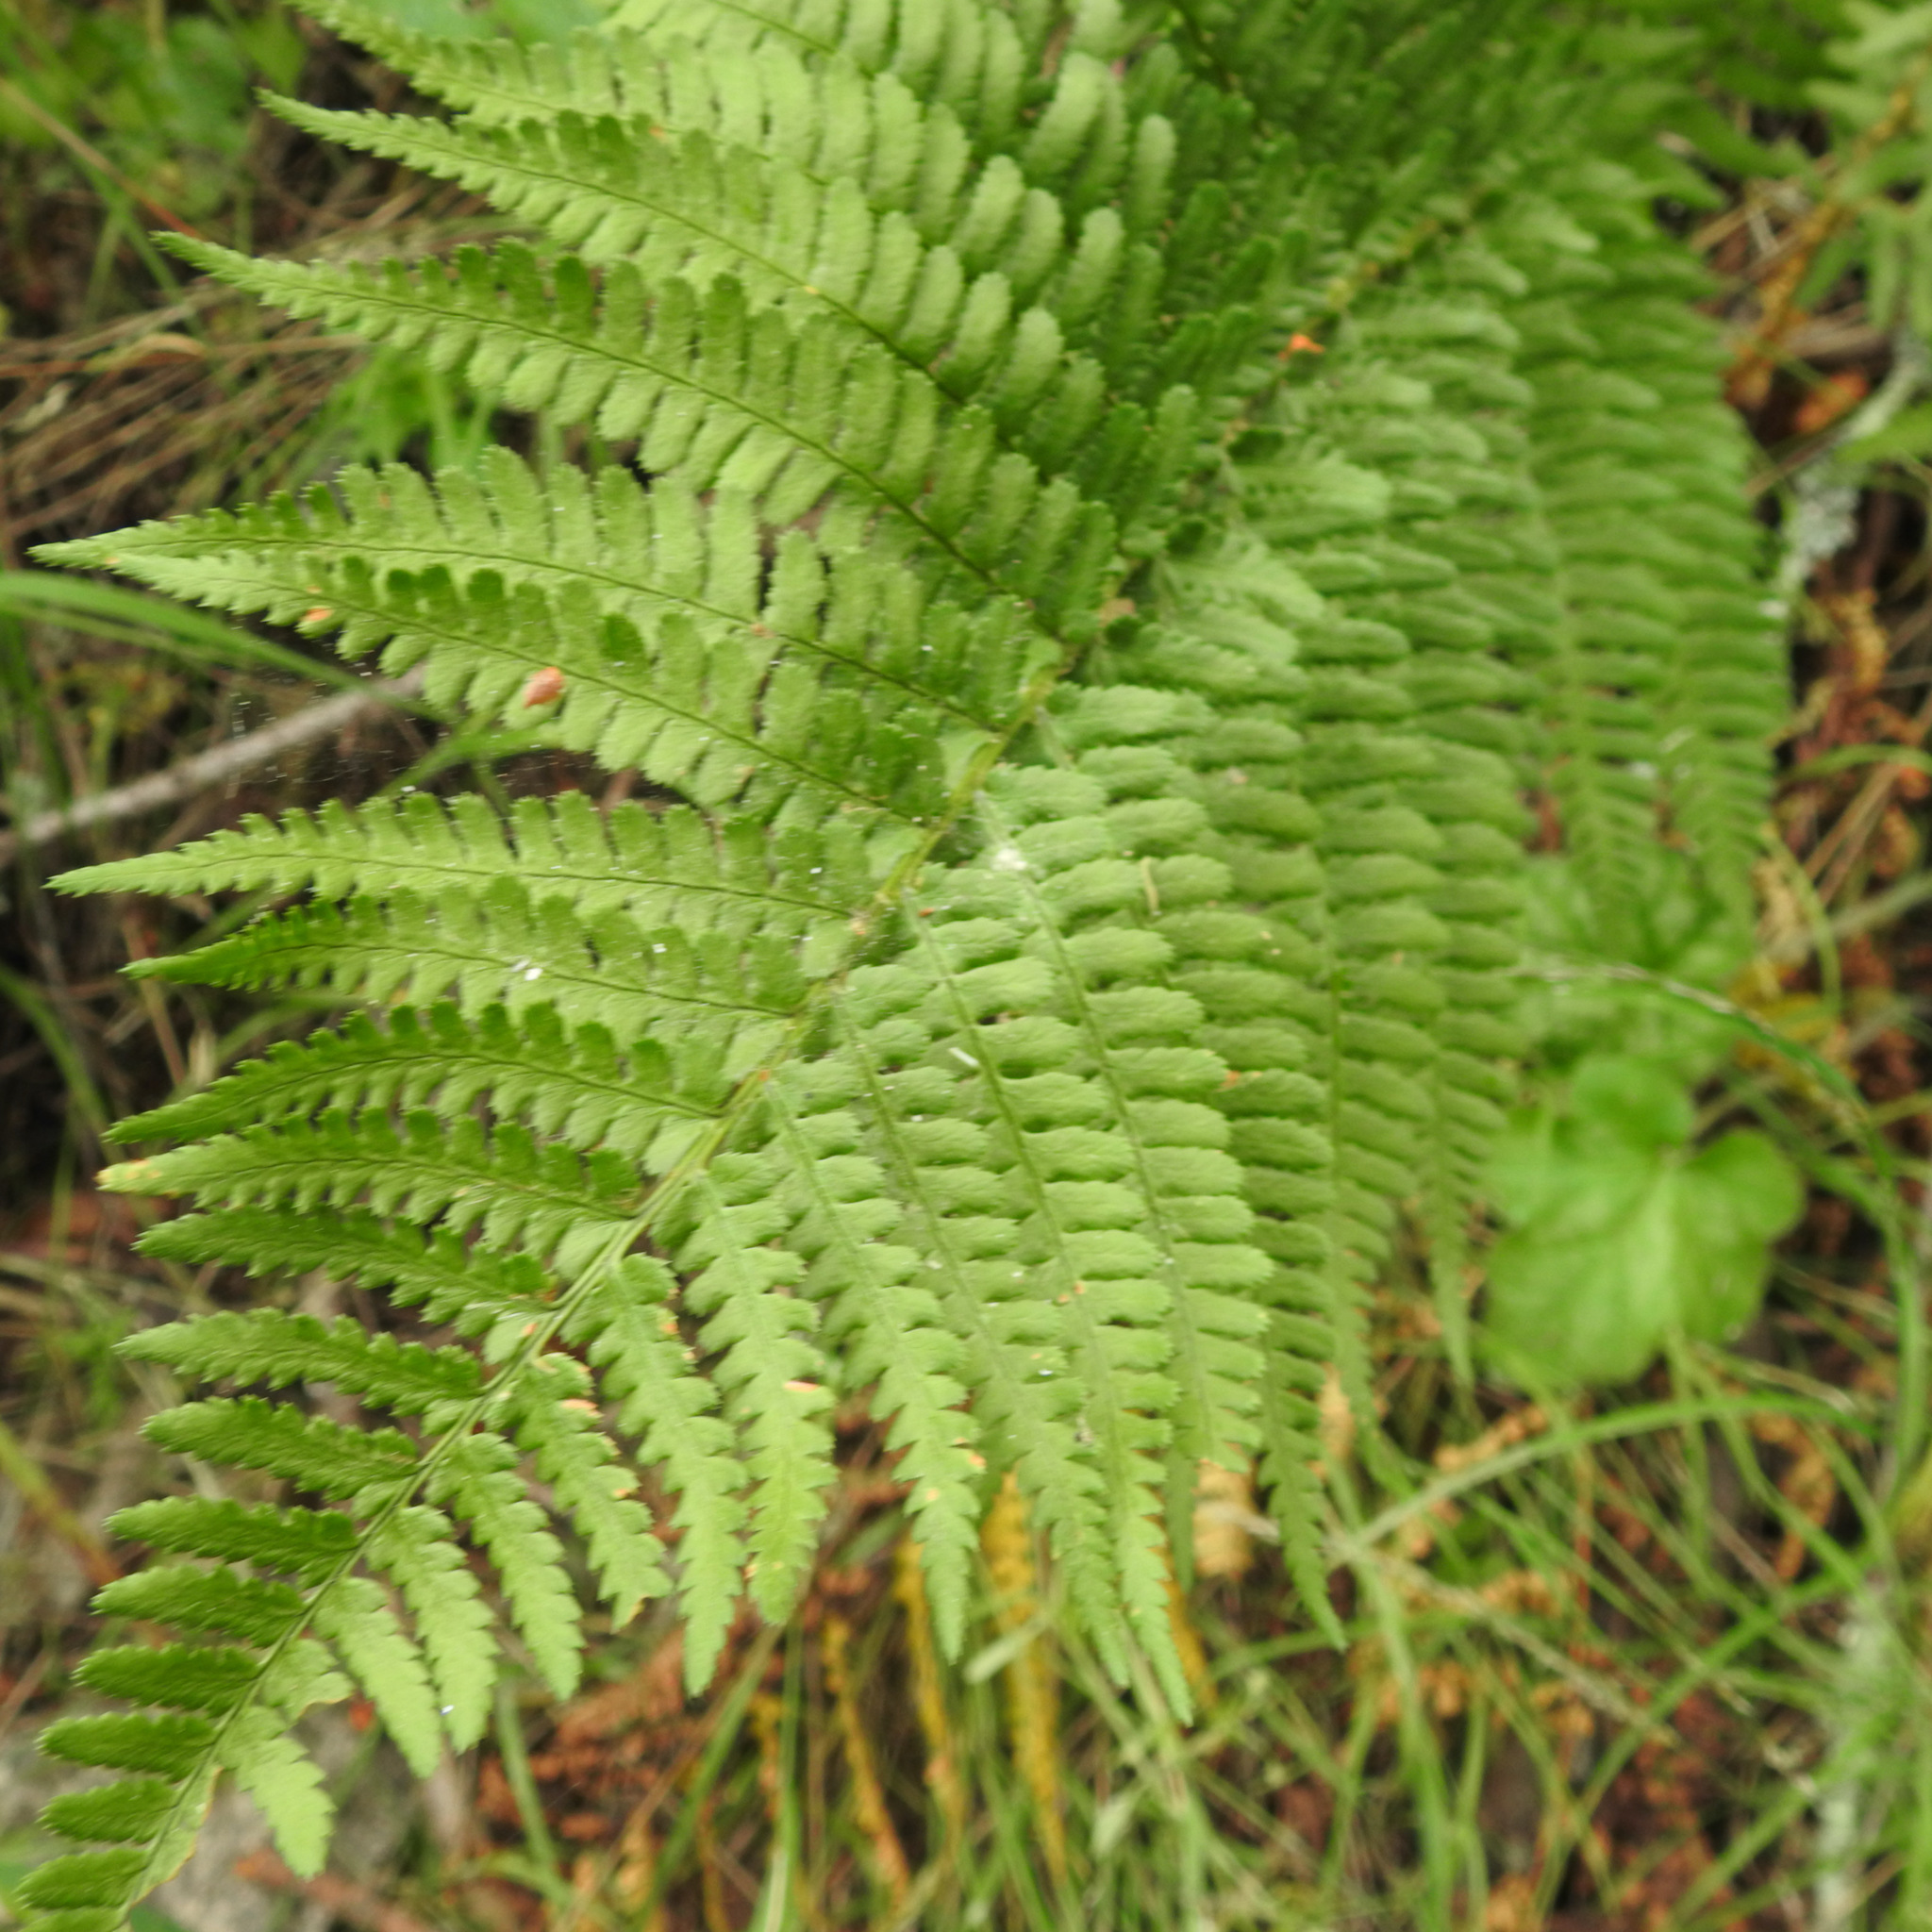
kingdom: Plantae
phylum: Tracheophyta
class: Polypodiopsida
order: Polypodiales
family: Dryopteridaceae
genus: Dryopteris
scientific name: Dryopteris arguta
